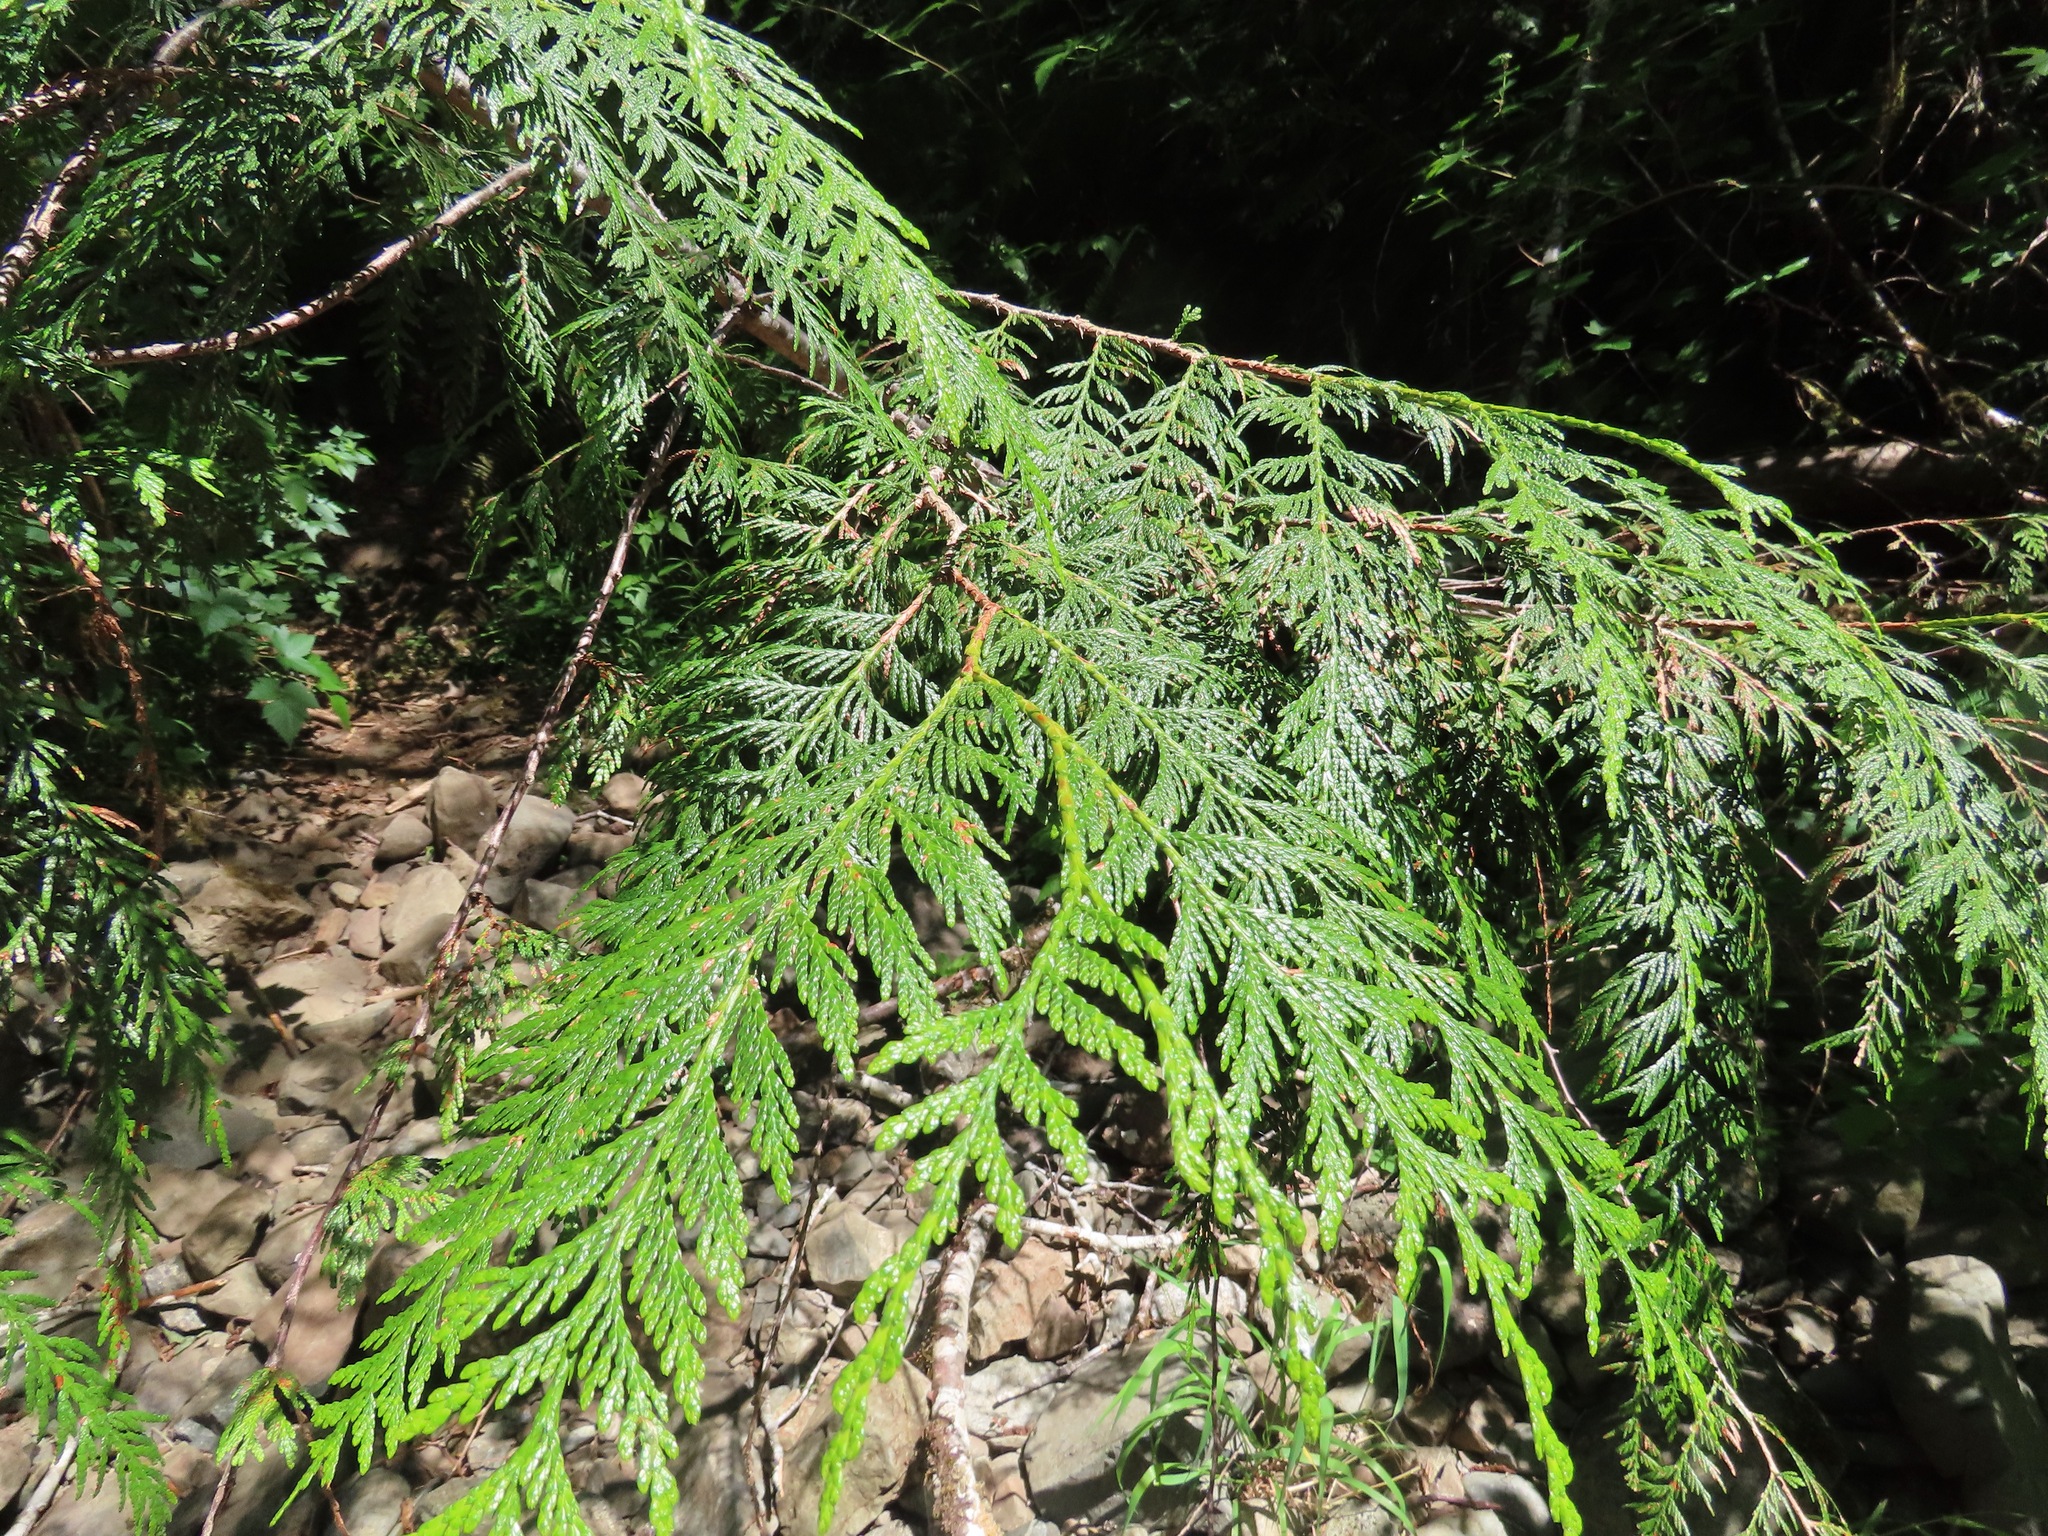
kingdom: Plantae
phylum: Tracheophyta
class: Pinopsida
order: Pinales
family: Cupressaceae
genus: Thuja
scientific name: Thuja plicata
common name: Western red-cedar
